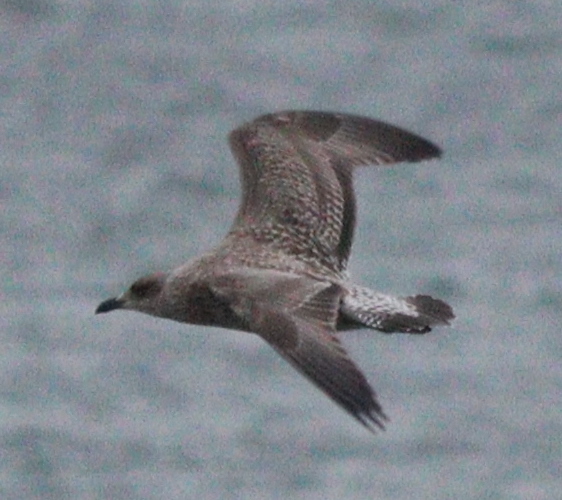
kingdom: Animalia
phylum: Chordata
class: Aves
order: Charadriiformes
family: Laridae
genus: Larus
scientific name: Larus argentatus
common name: Herring gull
